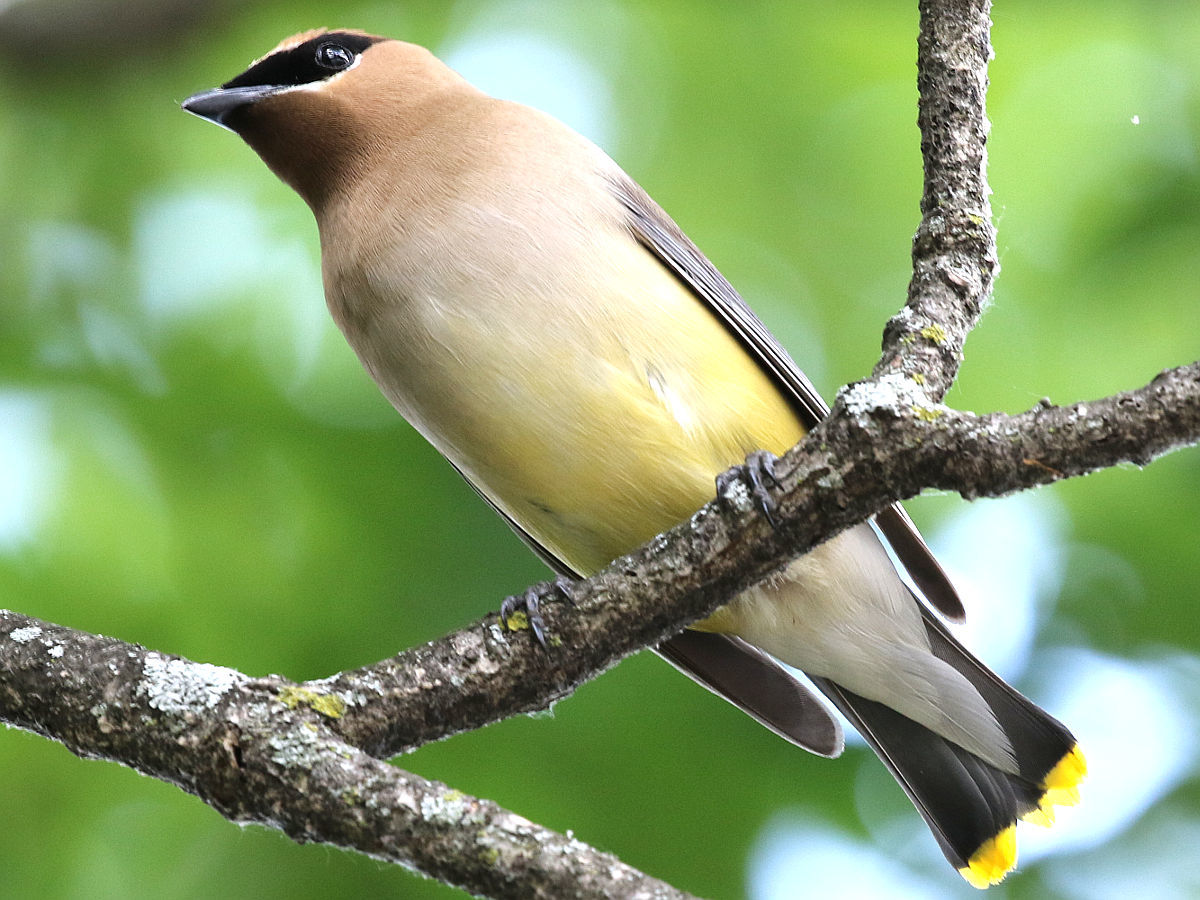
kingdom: Animalia
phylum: Chordata
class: Aves
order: Passeriformes
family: Bombycillidae
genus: Bombycilla
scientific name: Bombycilla cedrorum
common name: Cedar waxwing
